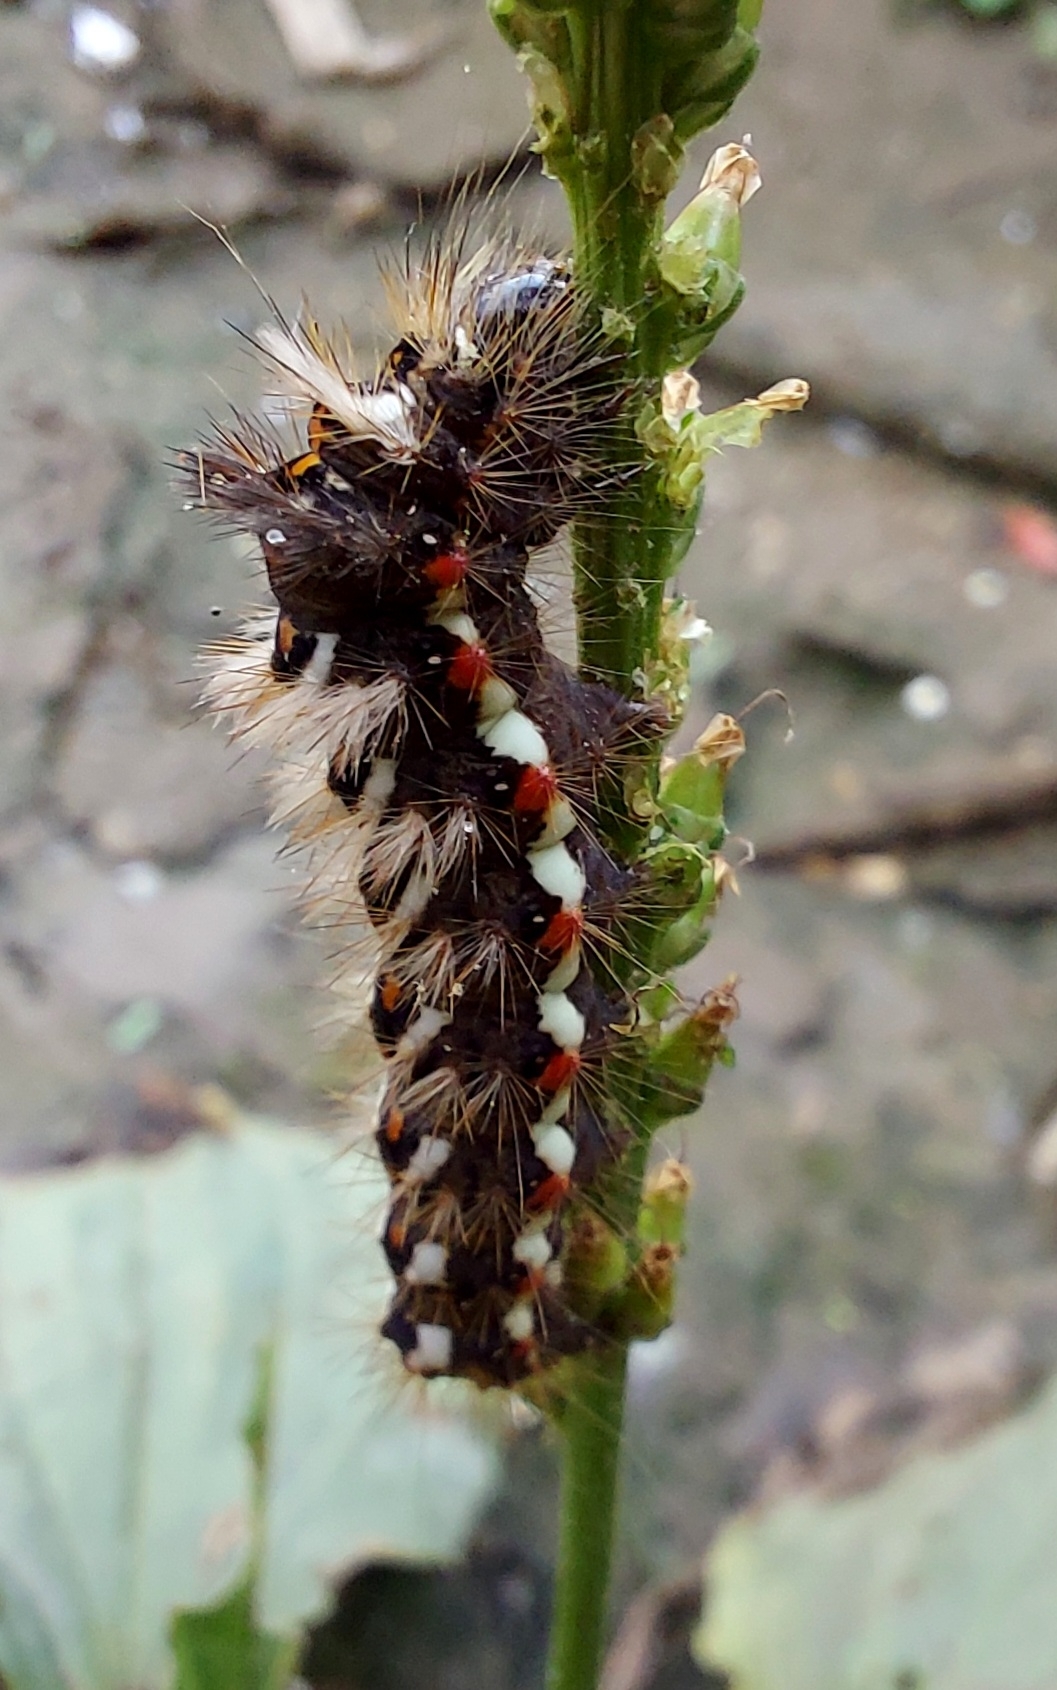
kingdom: Animalia
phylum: Arthropoda
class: Insecta
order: Lepidoptera
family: Noctuidae
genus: Acronicta
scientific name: Acronicta rumicis
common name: Knot grass
